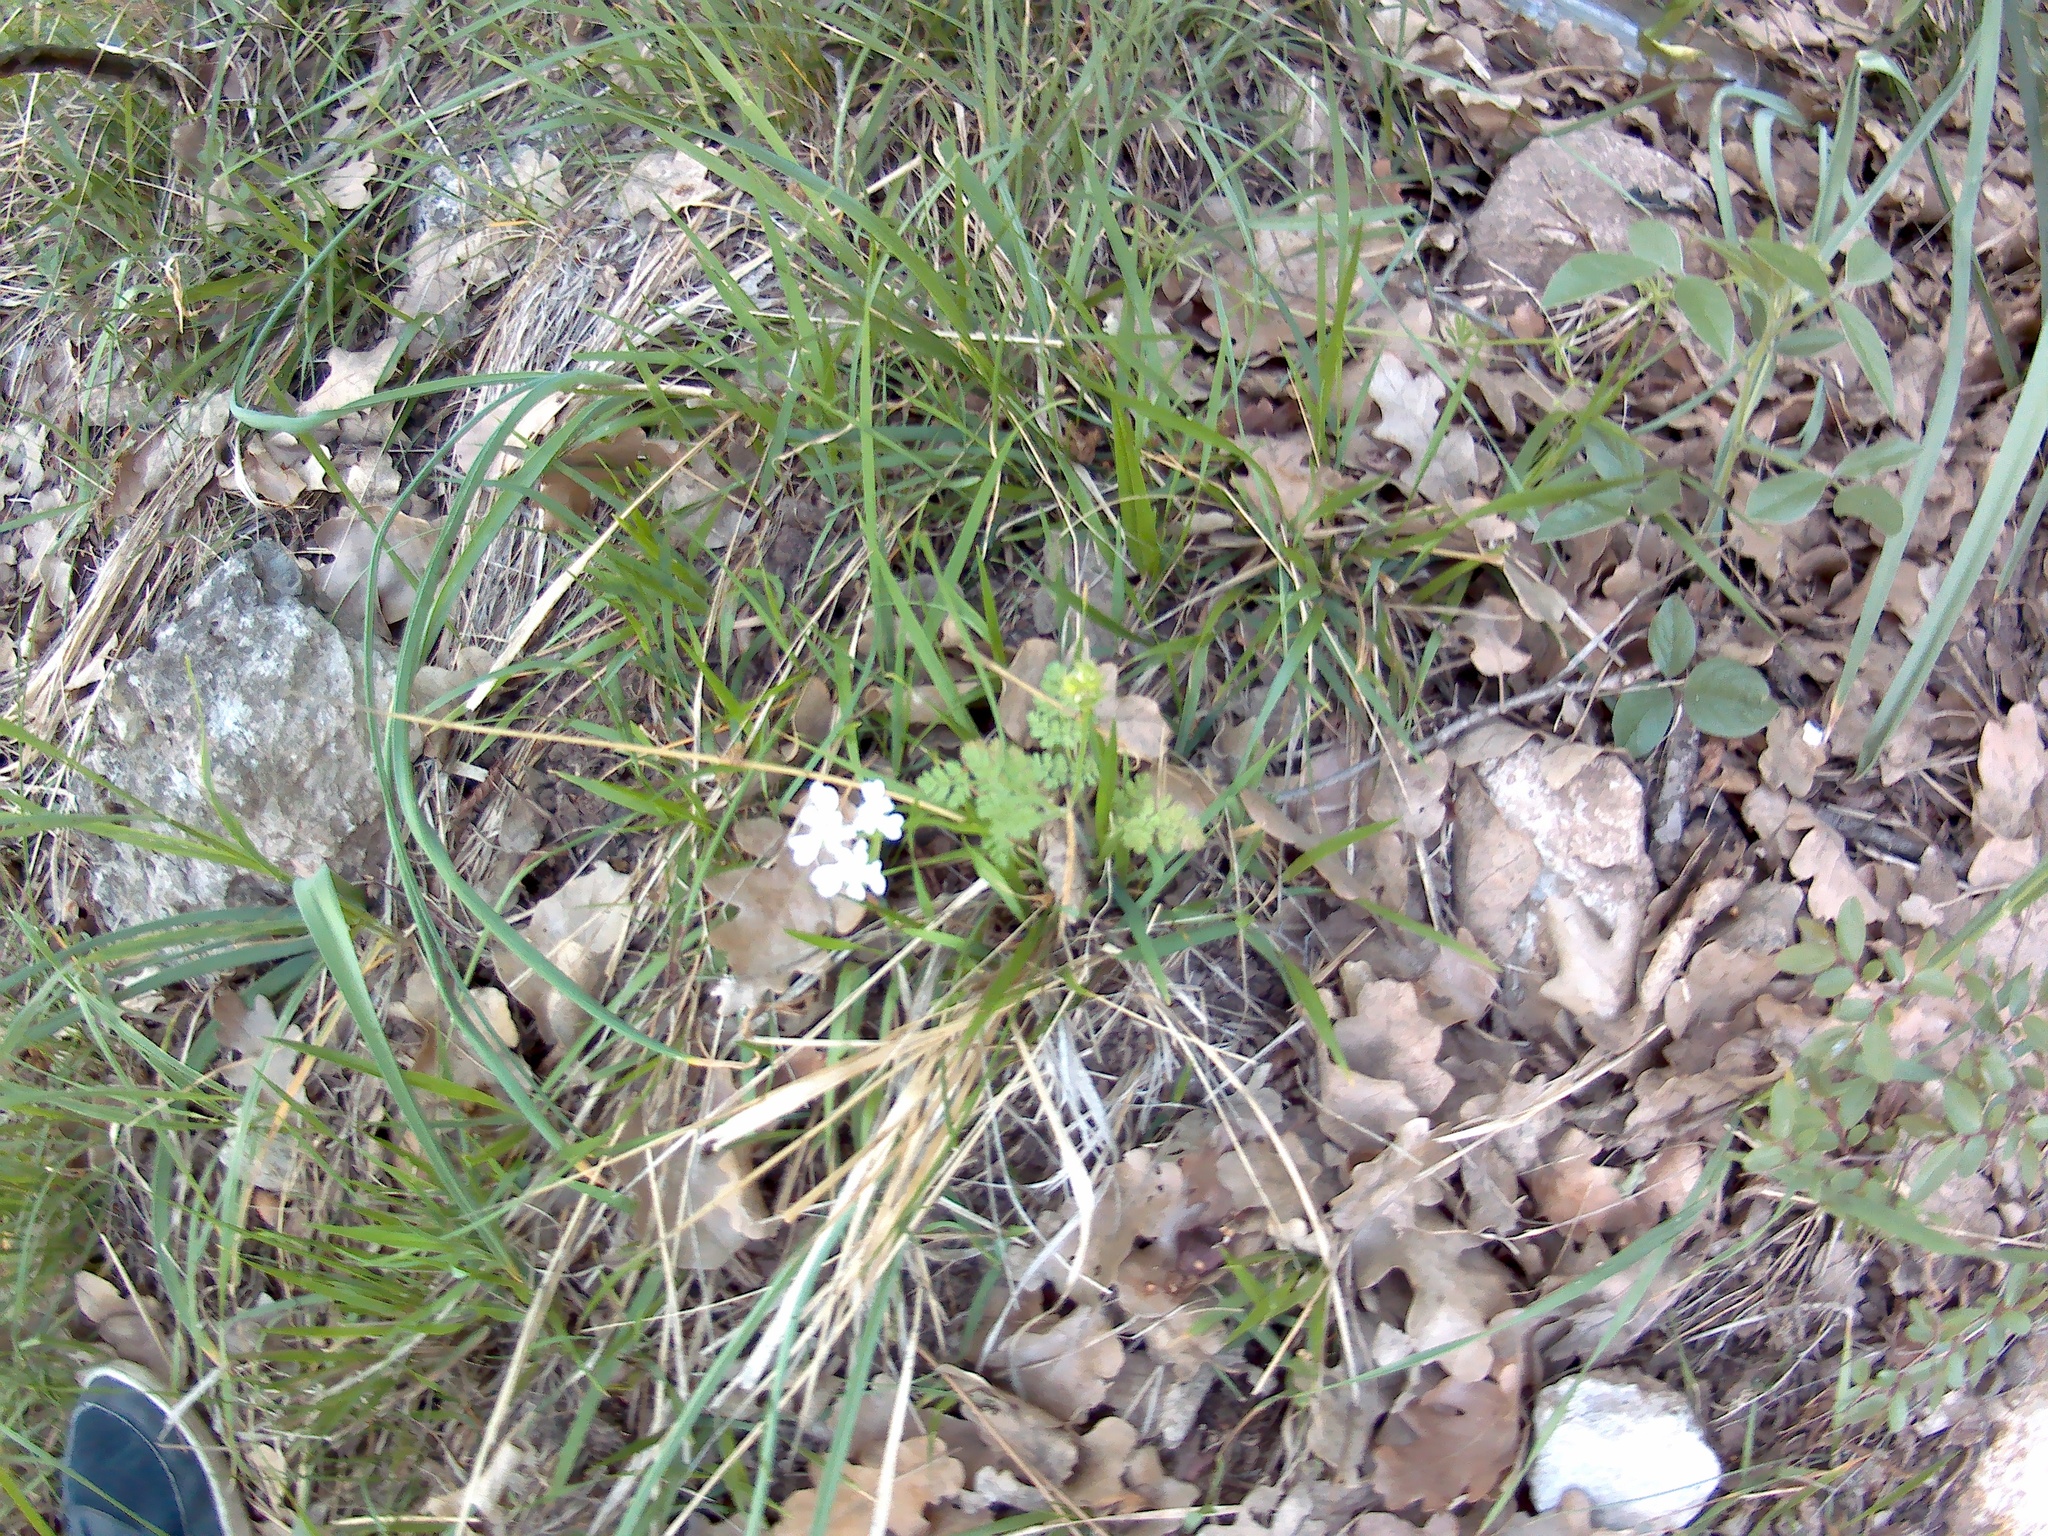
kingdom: Plantae
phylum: Tracheophyta
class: Magnoliopsida
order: Apiales
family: Apiaceae
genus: Orlaya
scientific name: Orlaya daucoides
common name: Flat-fruit orlaya
